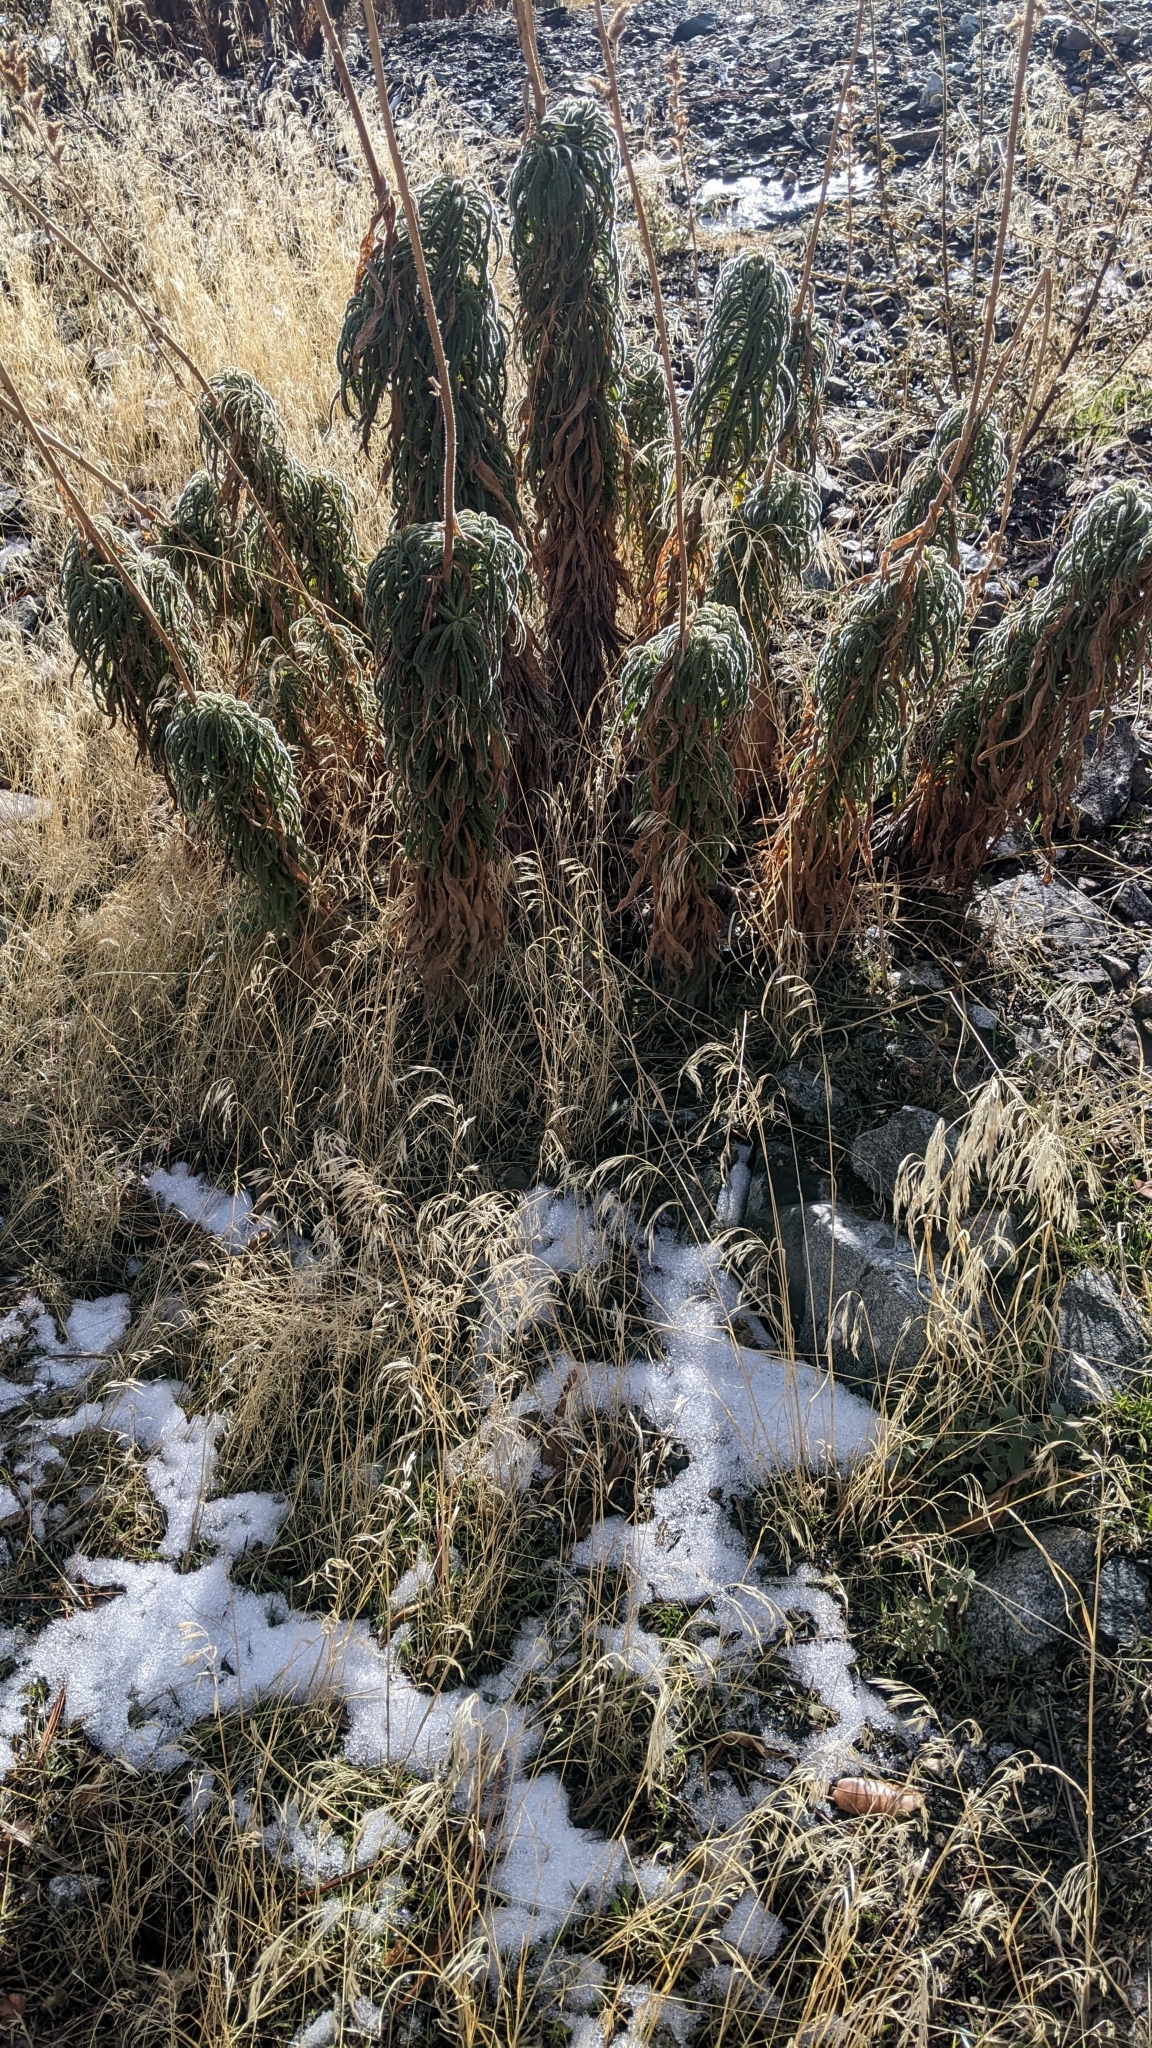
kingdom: Plantae
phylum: Tracheophyta
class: Magnoliopsida
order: Boraginales
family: Namaceae
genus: Turricula
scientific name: Turricula parryi
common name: Poodle-dog-bush
